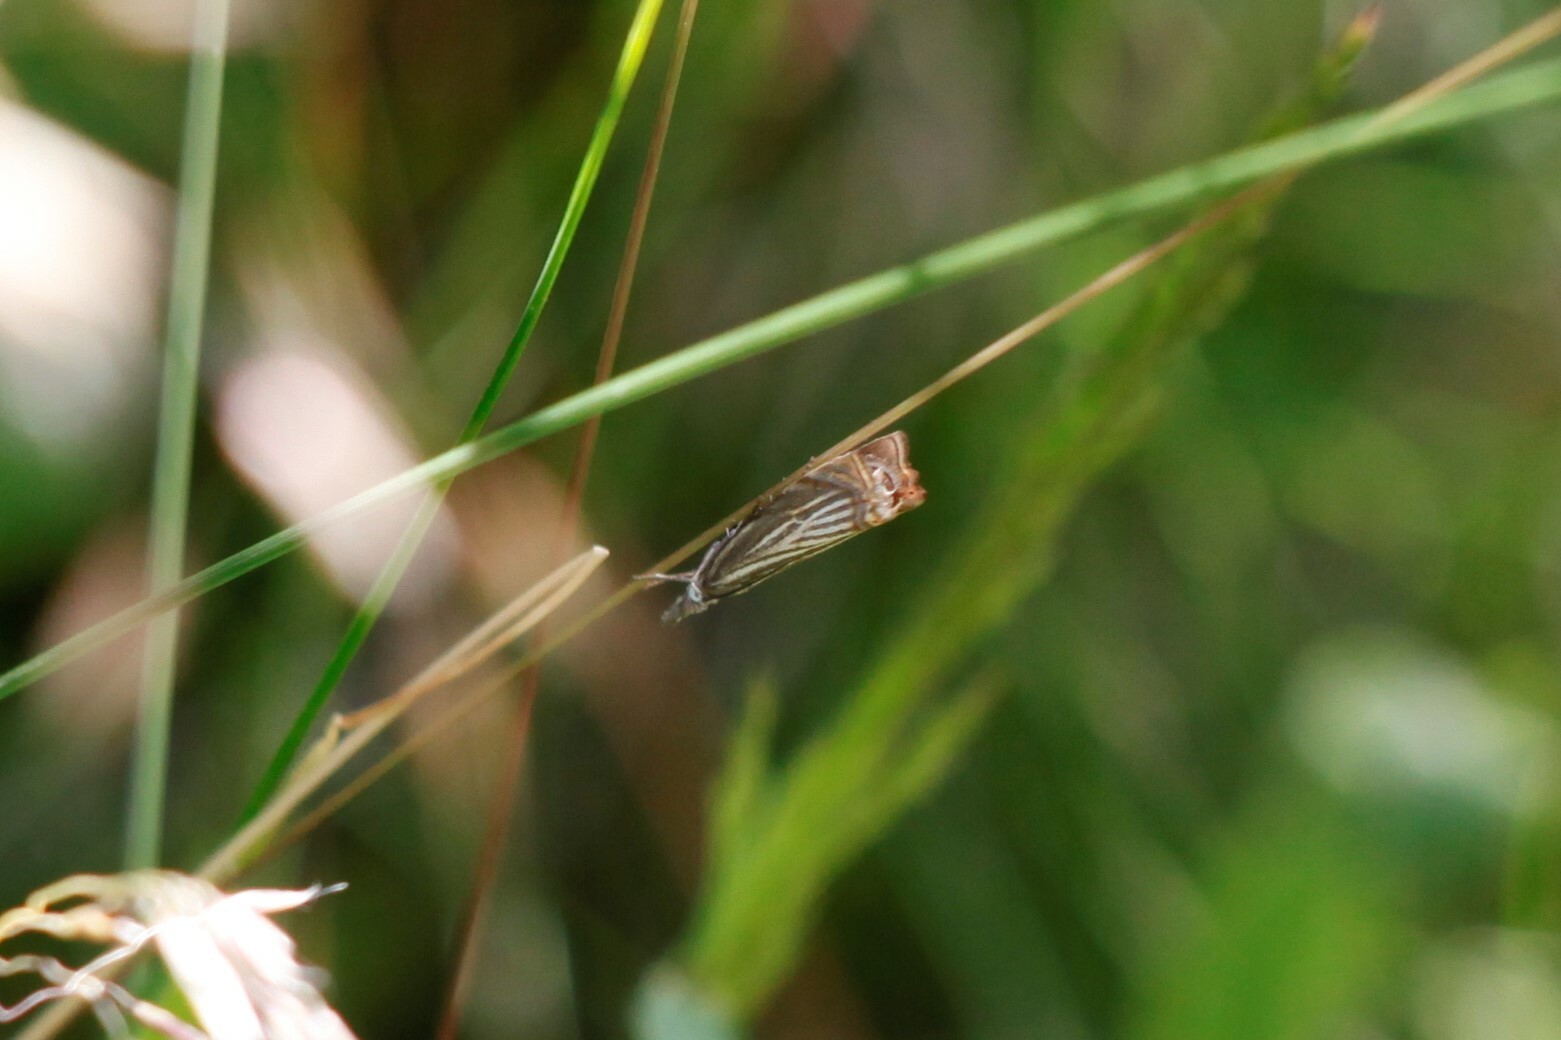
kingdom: Animalia
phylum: Arthropoda
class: Insecta
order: Lepidoptera
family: Crambidae
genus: Chrysoteuchia
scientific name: Chrysoteuchia culmella
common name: Garden grass-veneer
